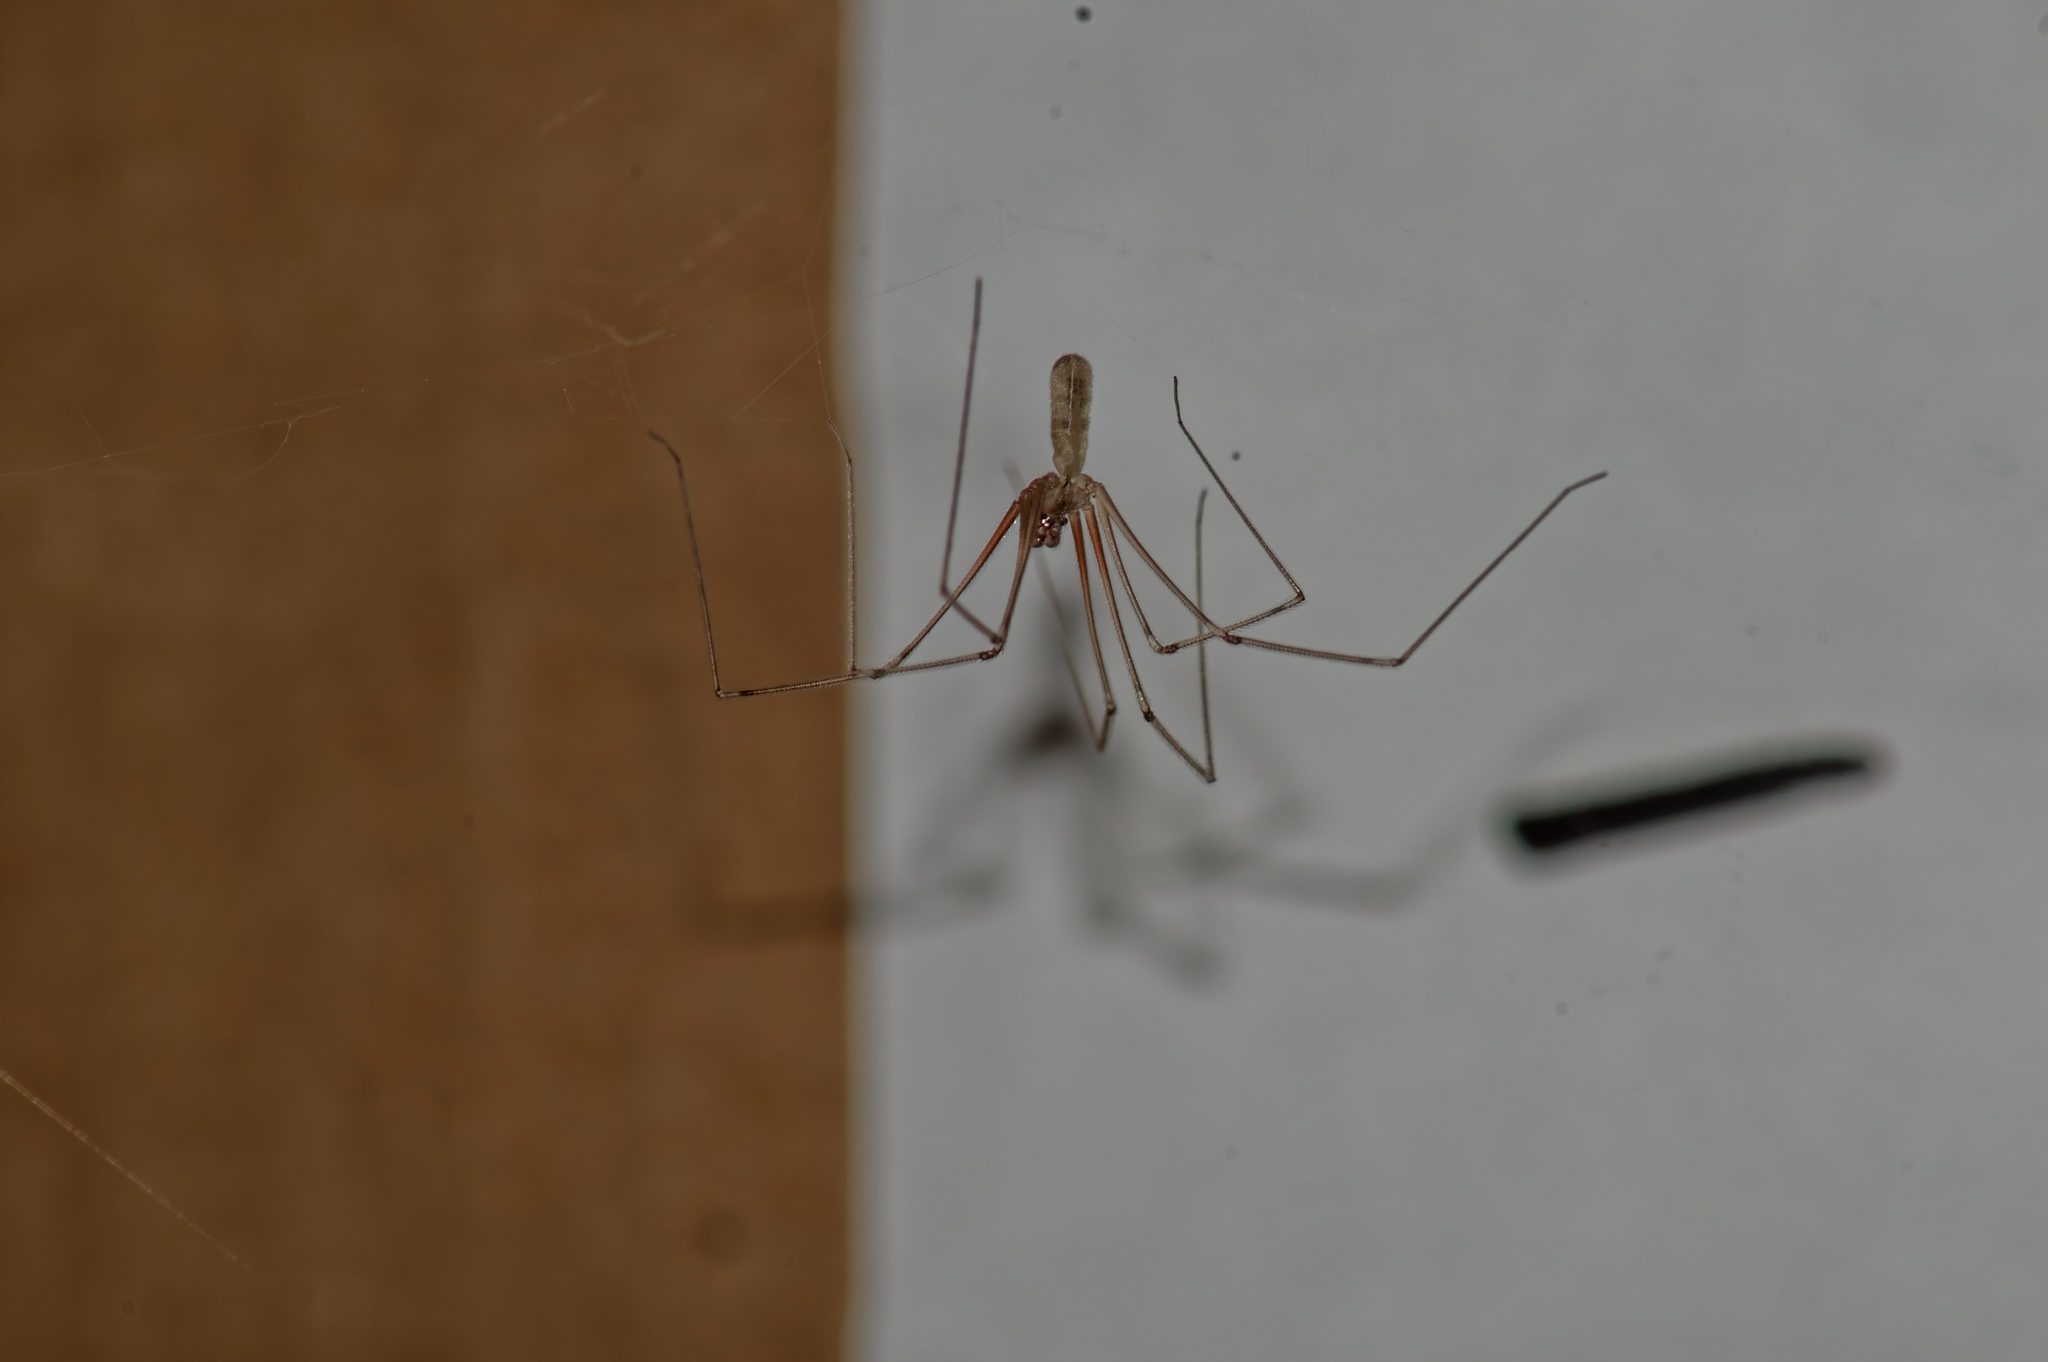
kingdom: Animalia
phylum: Arthropoda
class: Arachnida
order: Araneae
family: Pholcidae
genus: Pholcus
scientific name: Pholcus phalangioides
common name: Longbodied cellar spider
